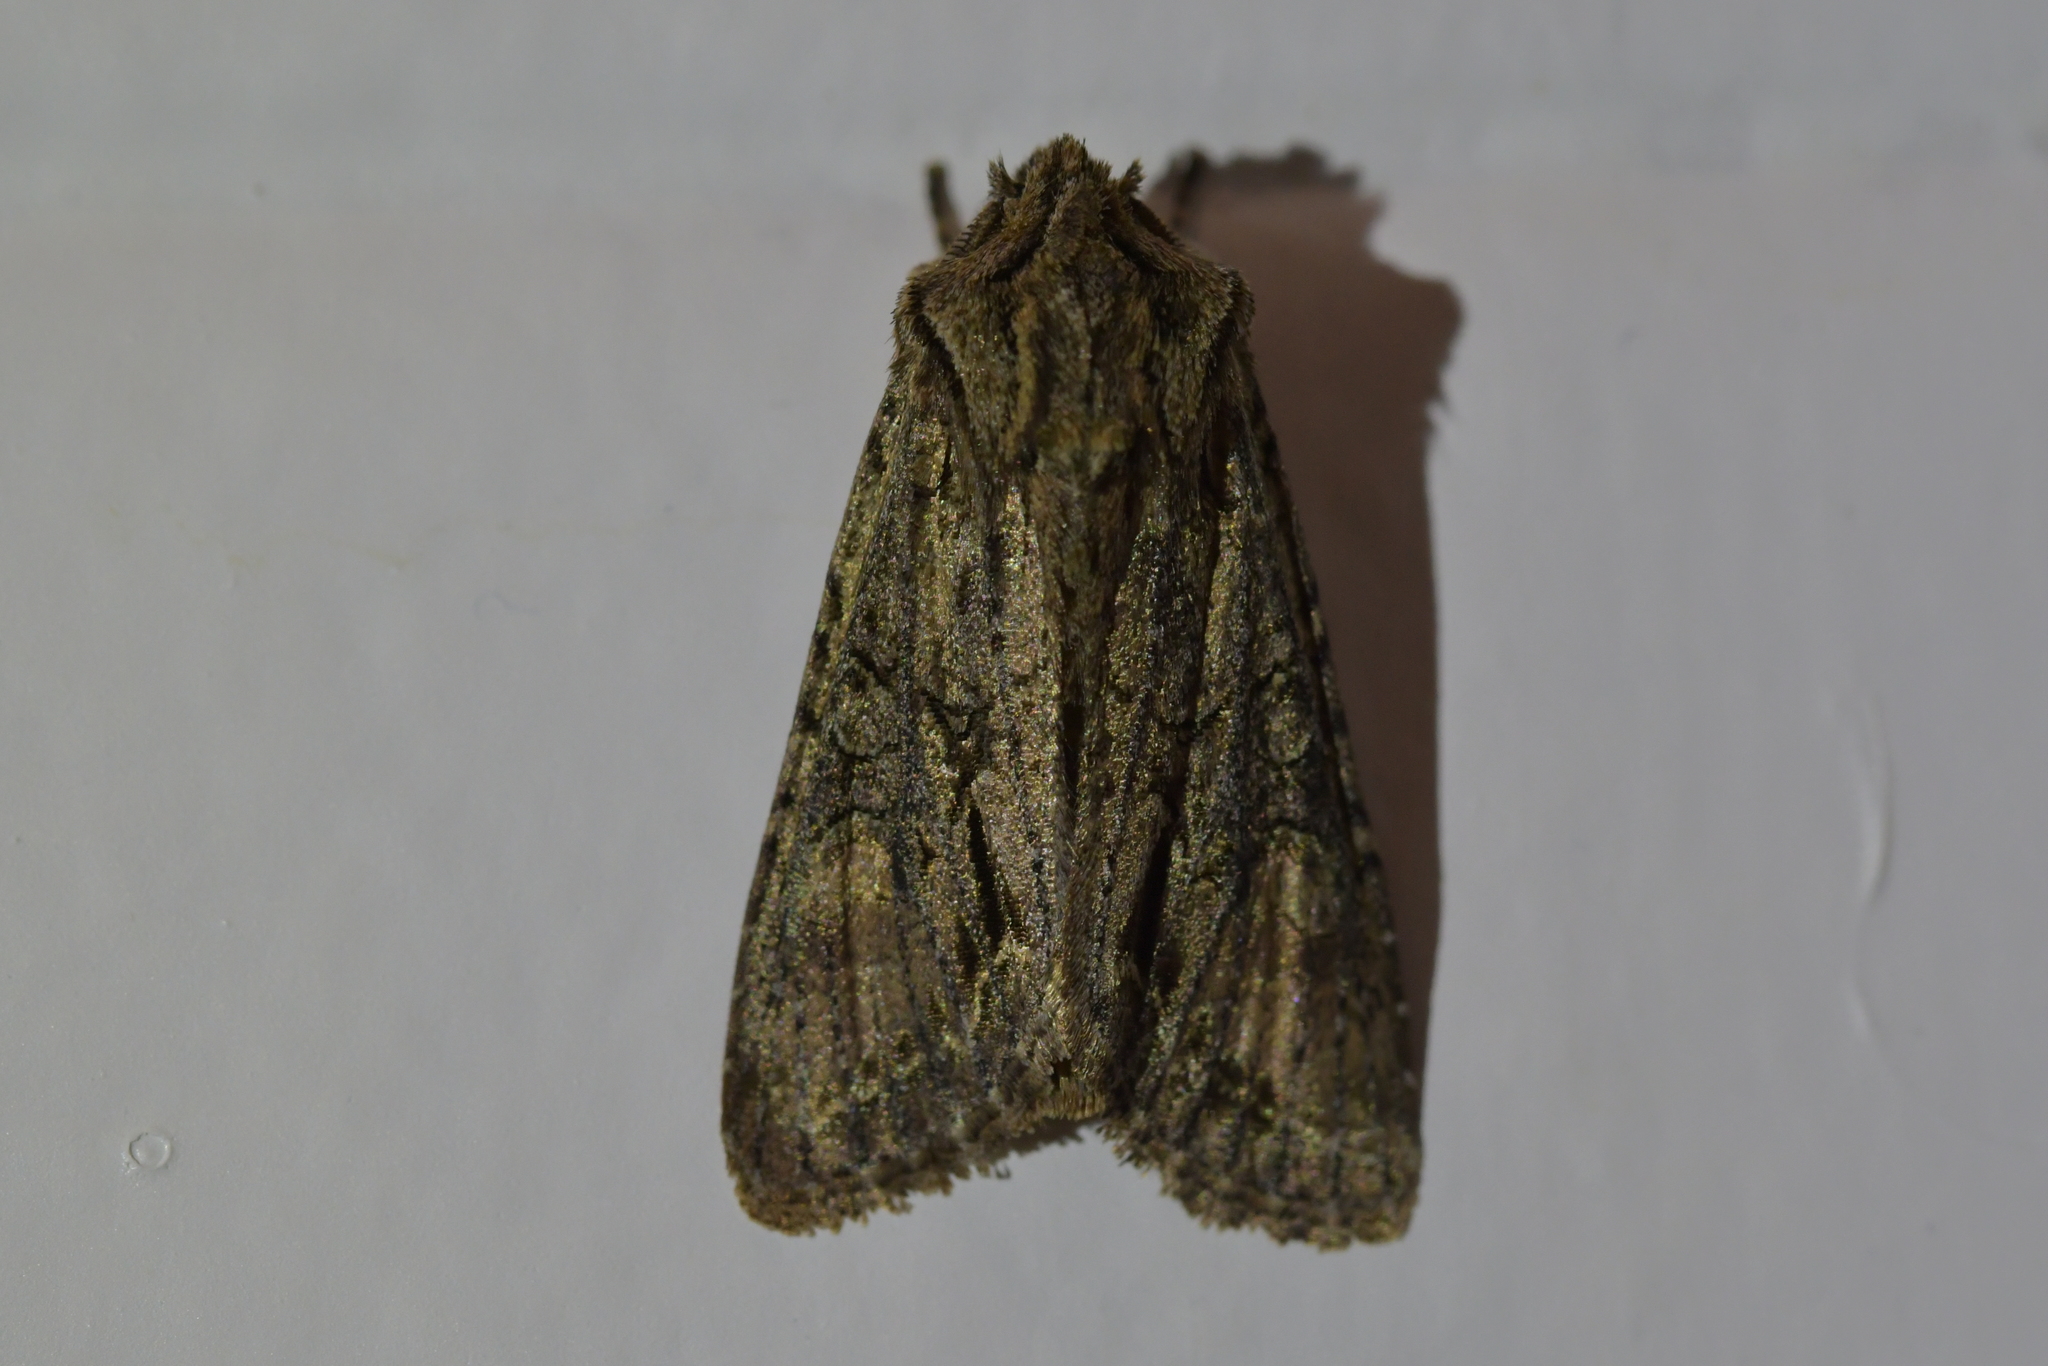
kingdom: Animalia
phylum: Arthropoda
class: Insecta
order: Lepidoptera
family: Noctuidae
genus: Ichneutica
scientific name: Ichneutica mutans
